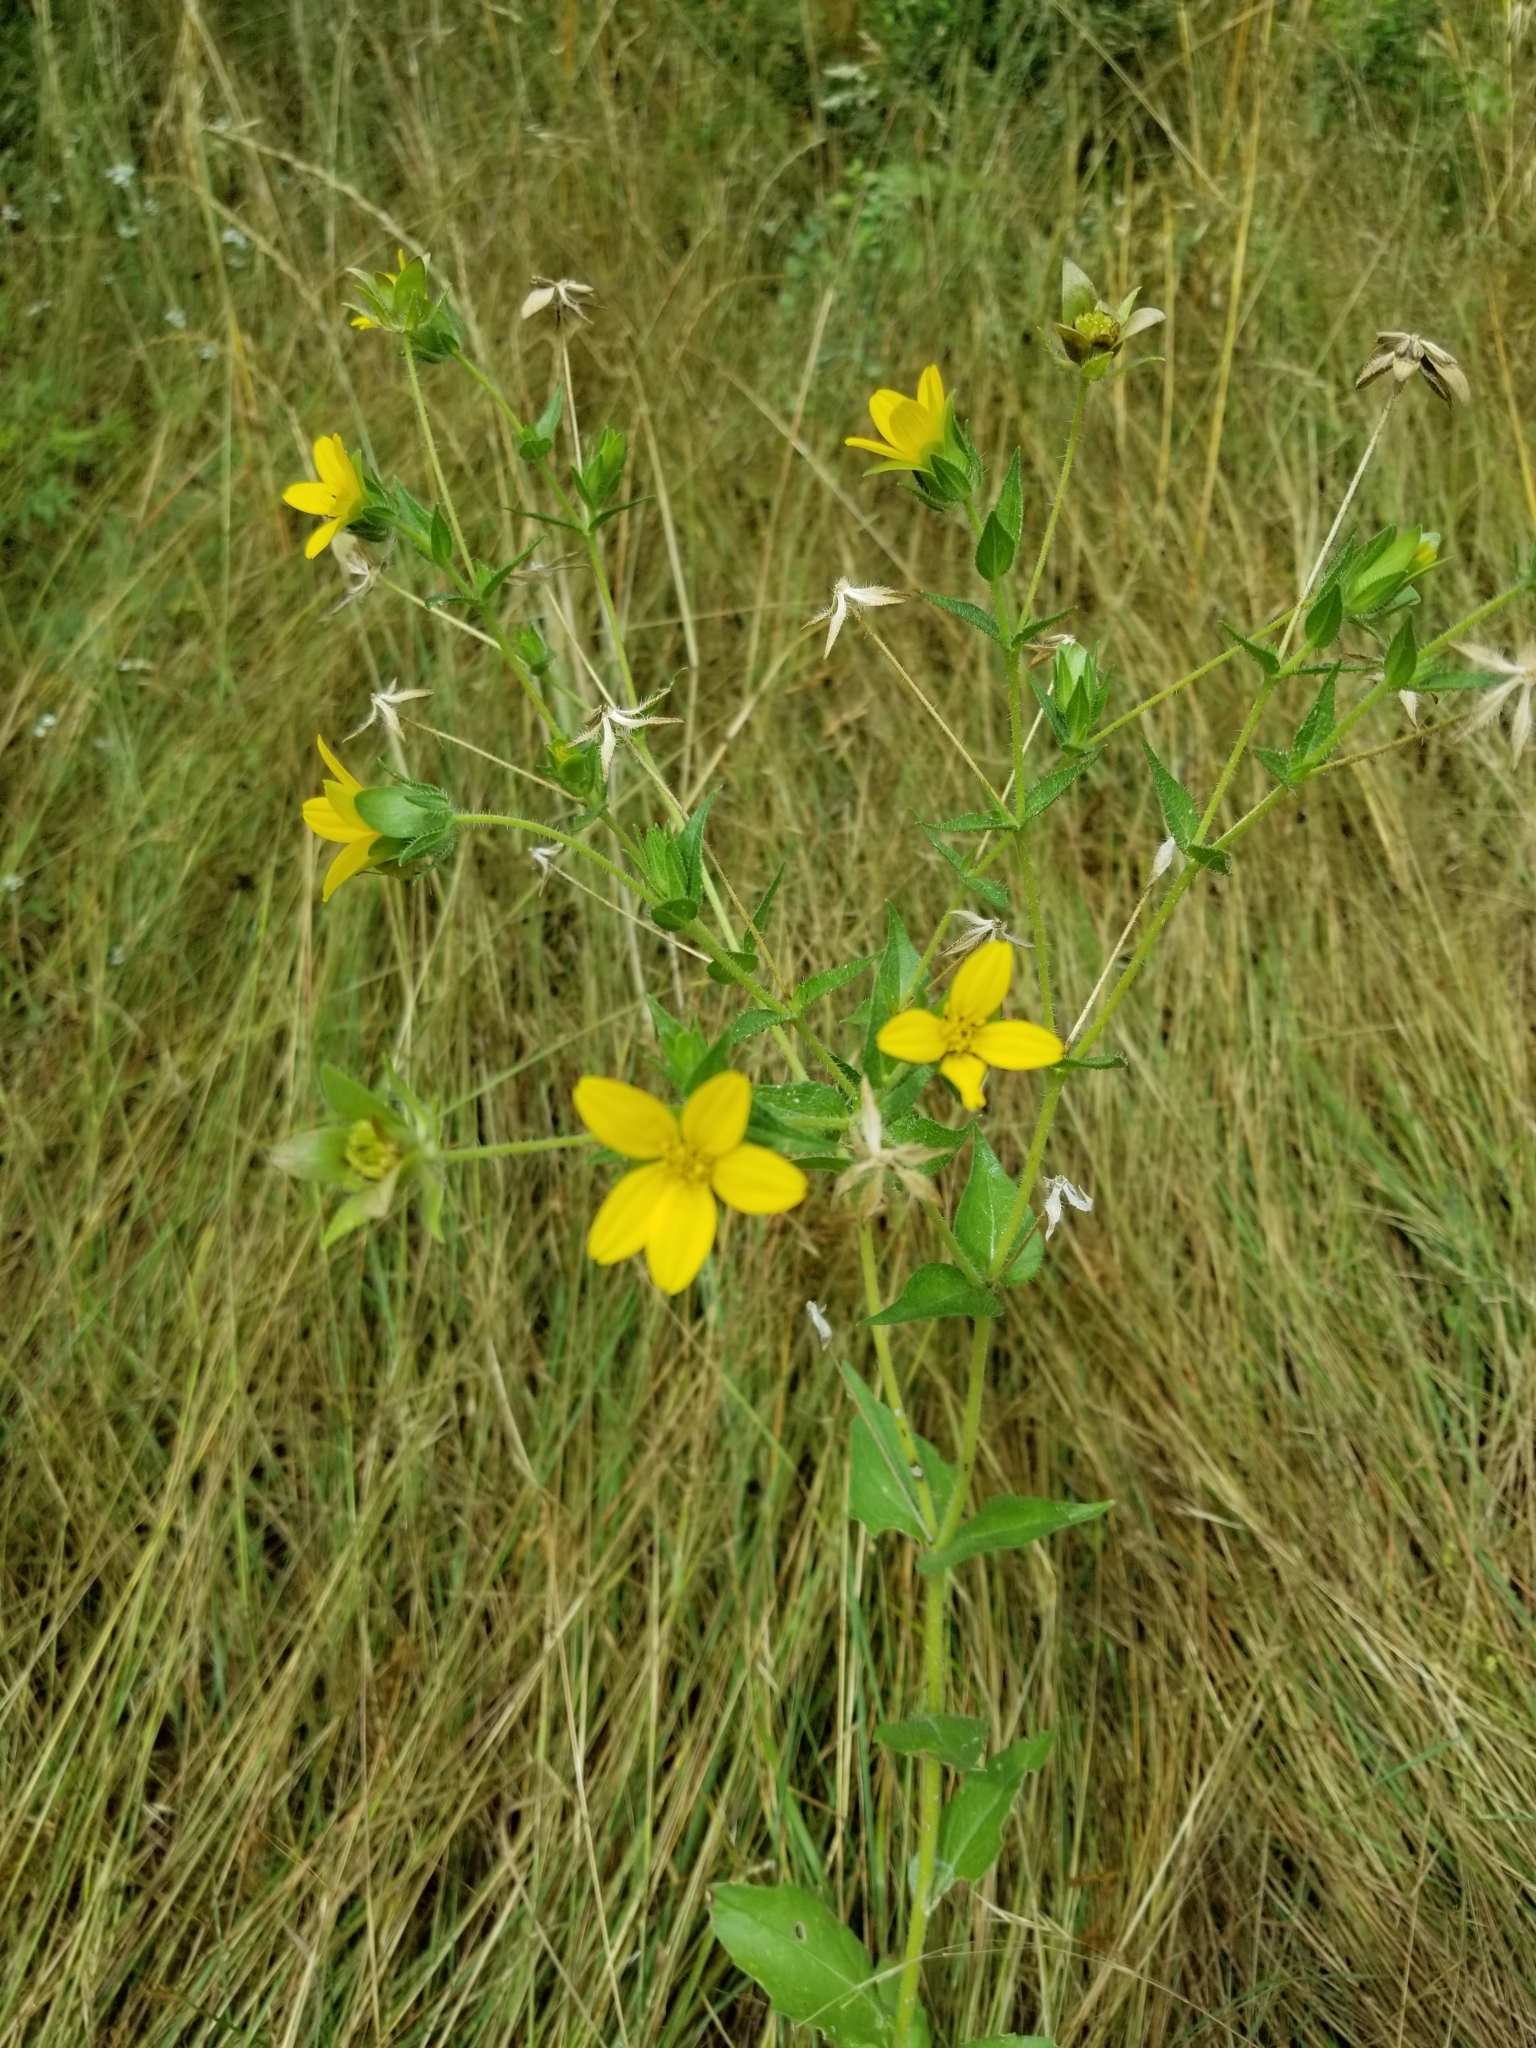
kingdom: Plantae
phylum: Tracheophyta
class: Magnoliopsida
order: Asterales
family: Asteraceae
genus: Lindheimera
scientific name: Lindheimera texana
